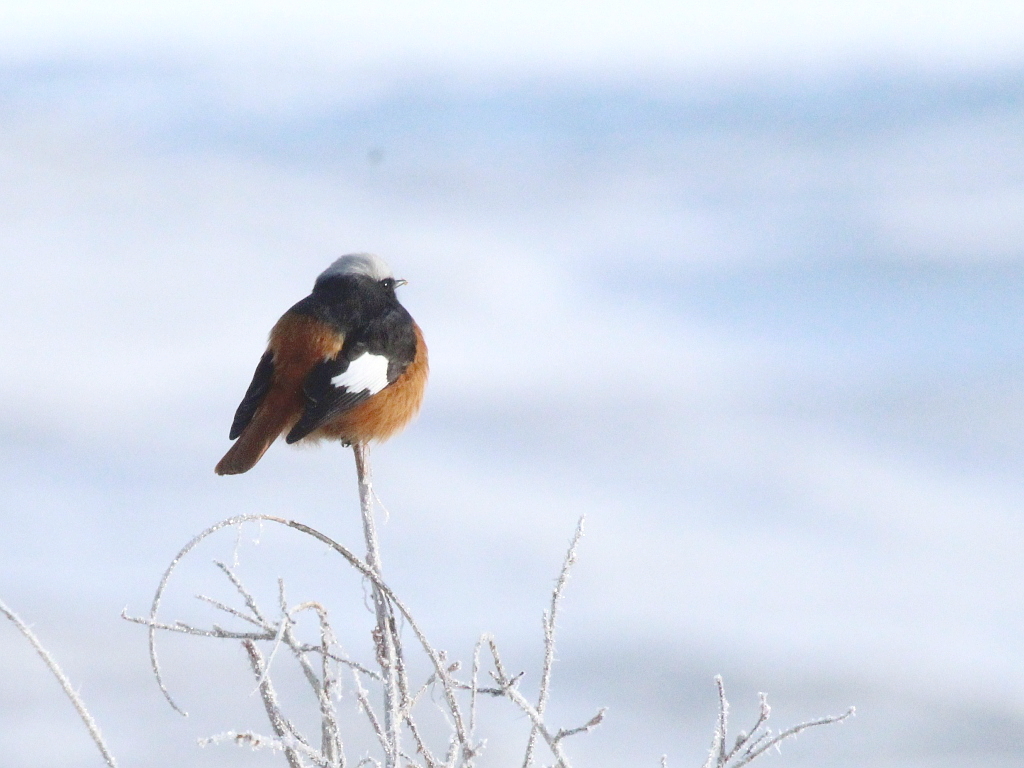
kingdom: Animalia
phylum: Chordata
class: Aves
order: Passeriformes
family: Muscicapidae
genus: Phoenicurus
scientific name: Phoenicurus erythrogastrus
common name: Güldenstädt's redstart
